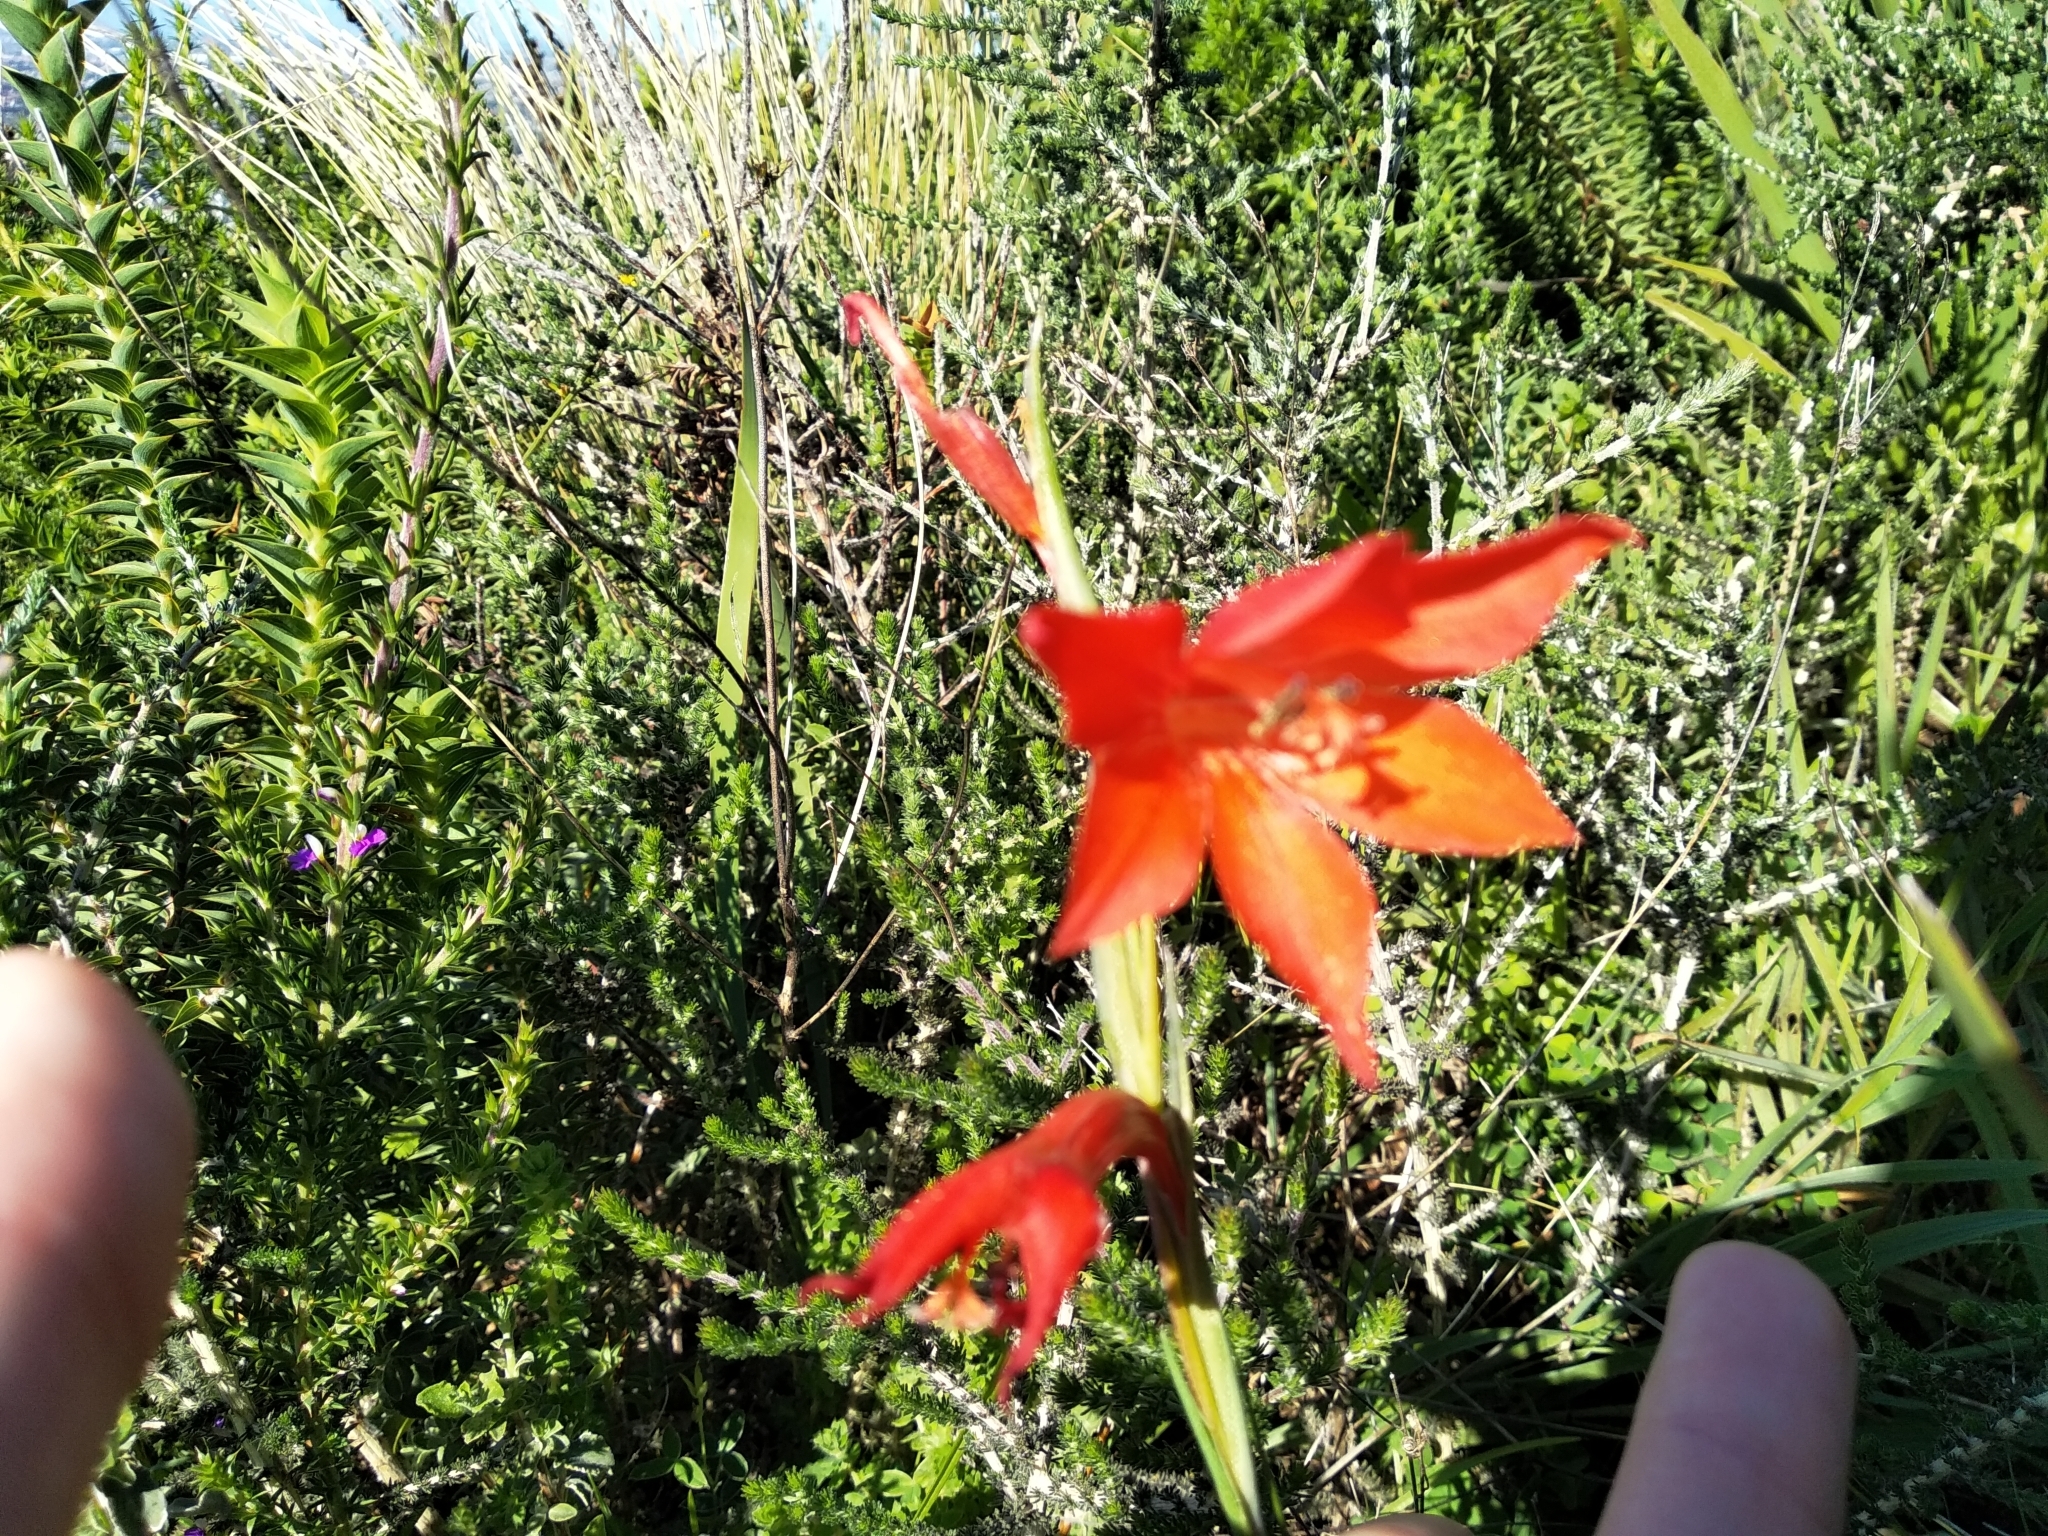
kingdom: Plantae
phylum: Tracheophyta
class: Liliopsida
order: Asparagales
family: Iridaceae
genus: Gladiolus
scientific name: Gladiolus watsonius
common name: Red afrikaner
